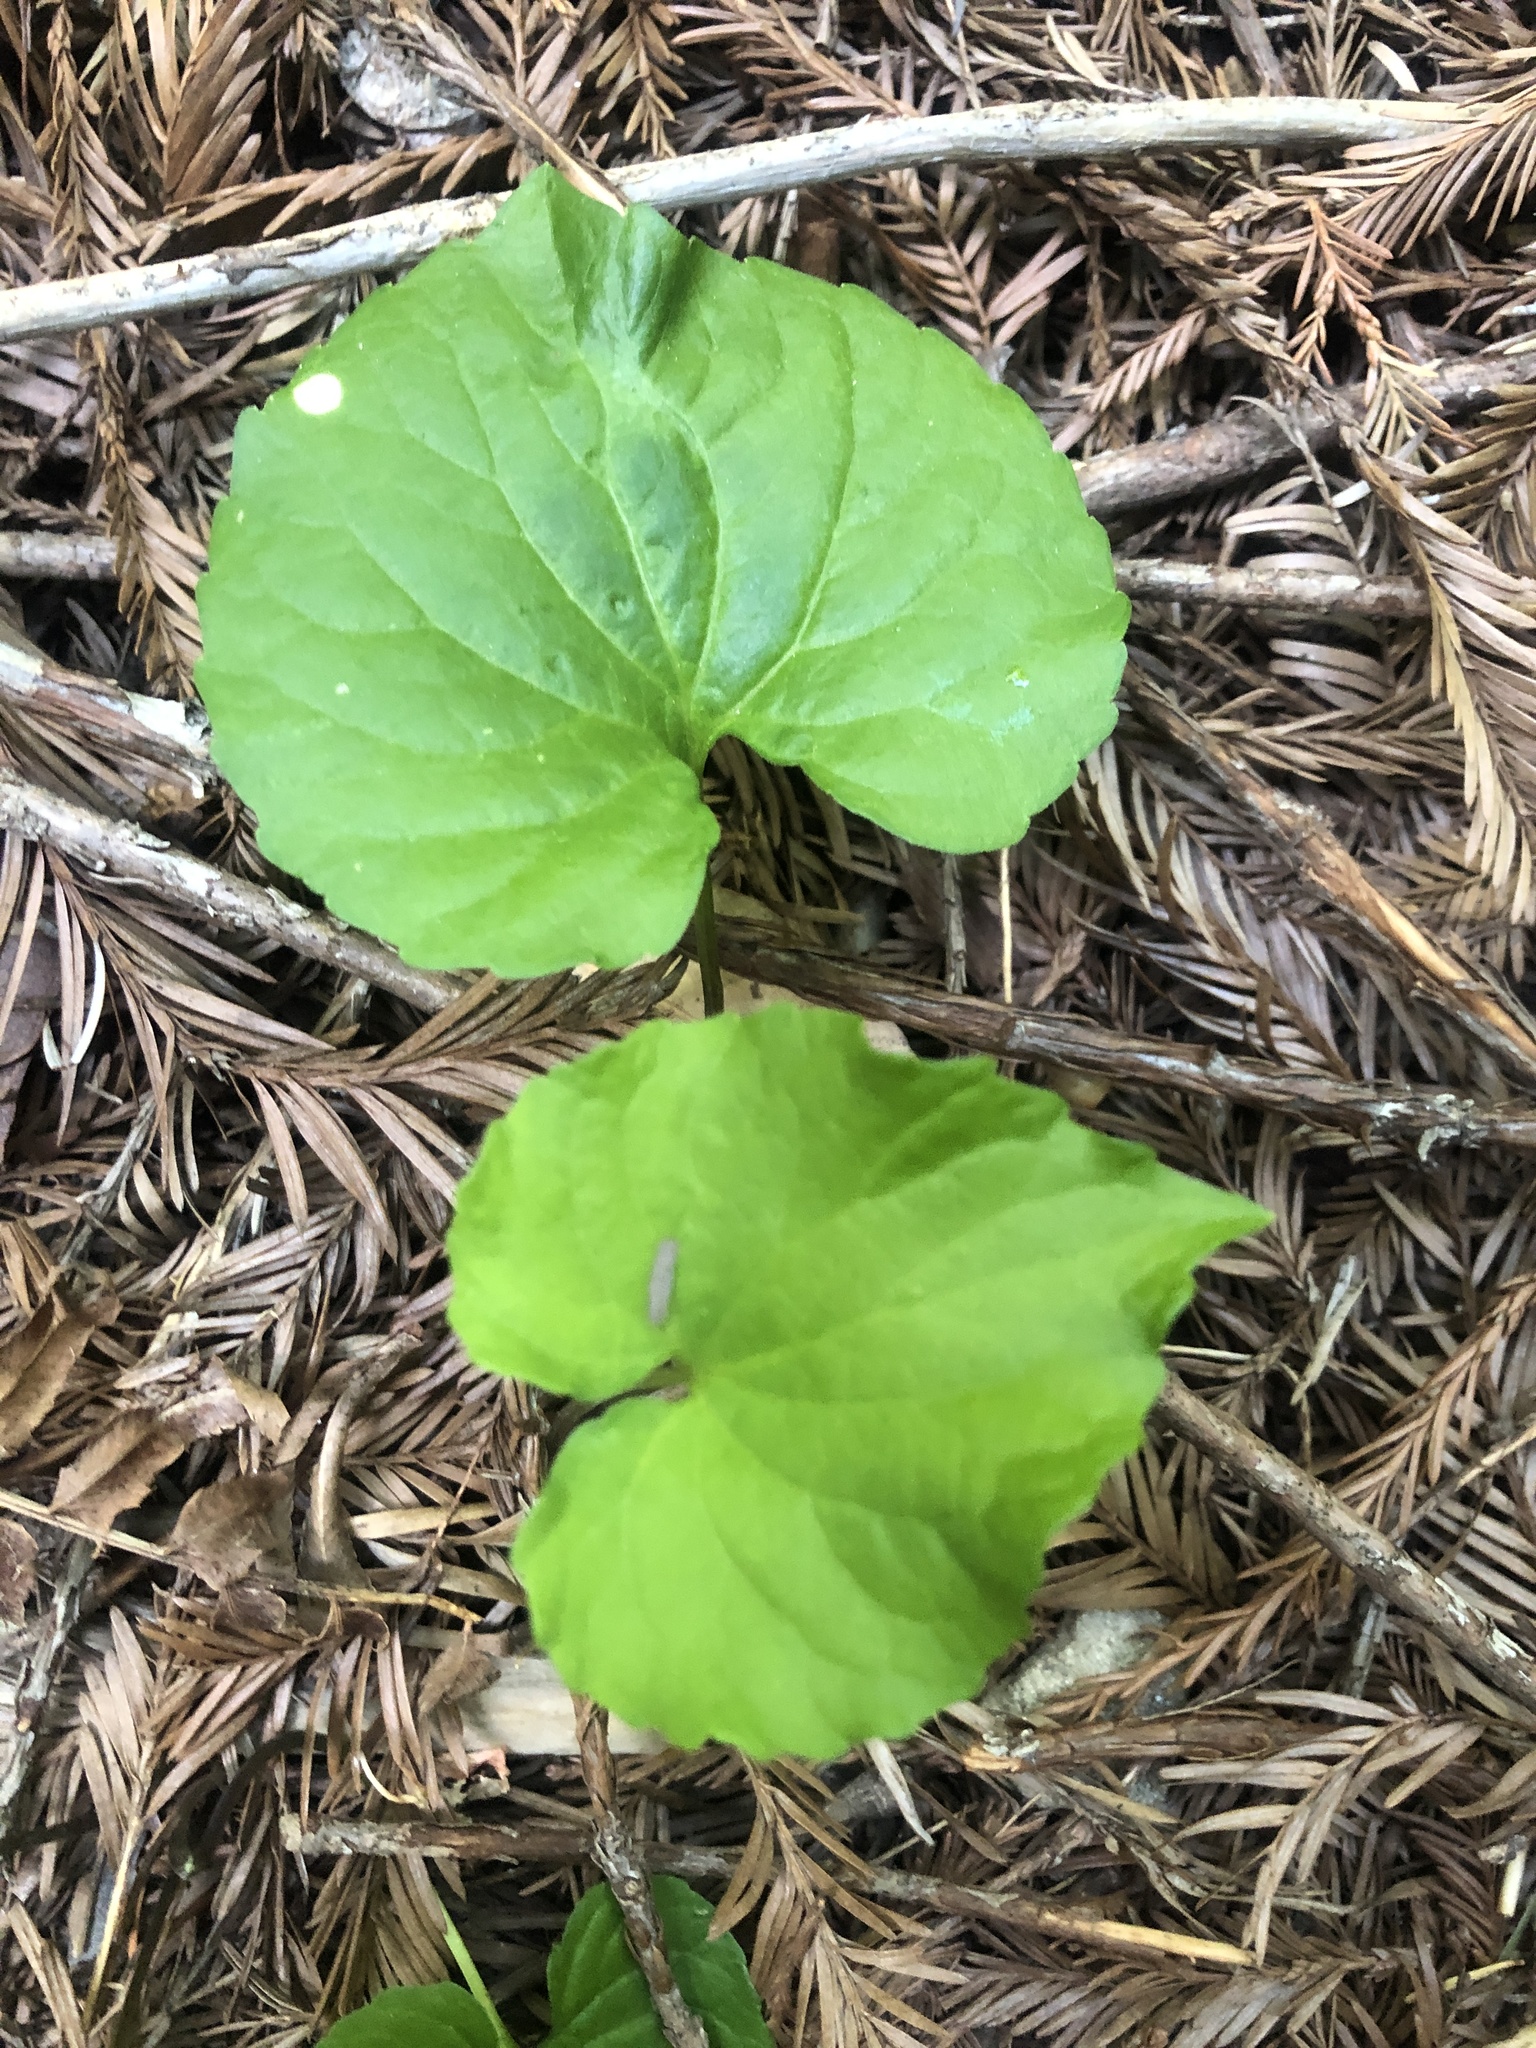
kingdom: Plantae
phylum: Tracheophyta
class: Magnoliopsida
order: Malpighiales
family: Violaceae
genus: Viola
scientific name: Viola glabella
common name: Stream violet
